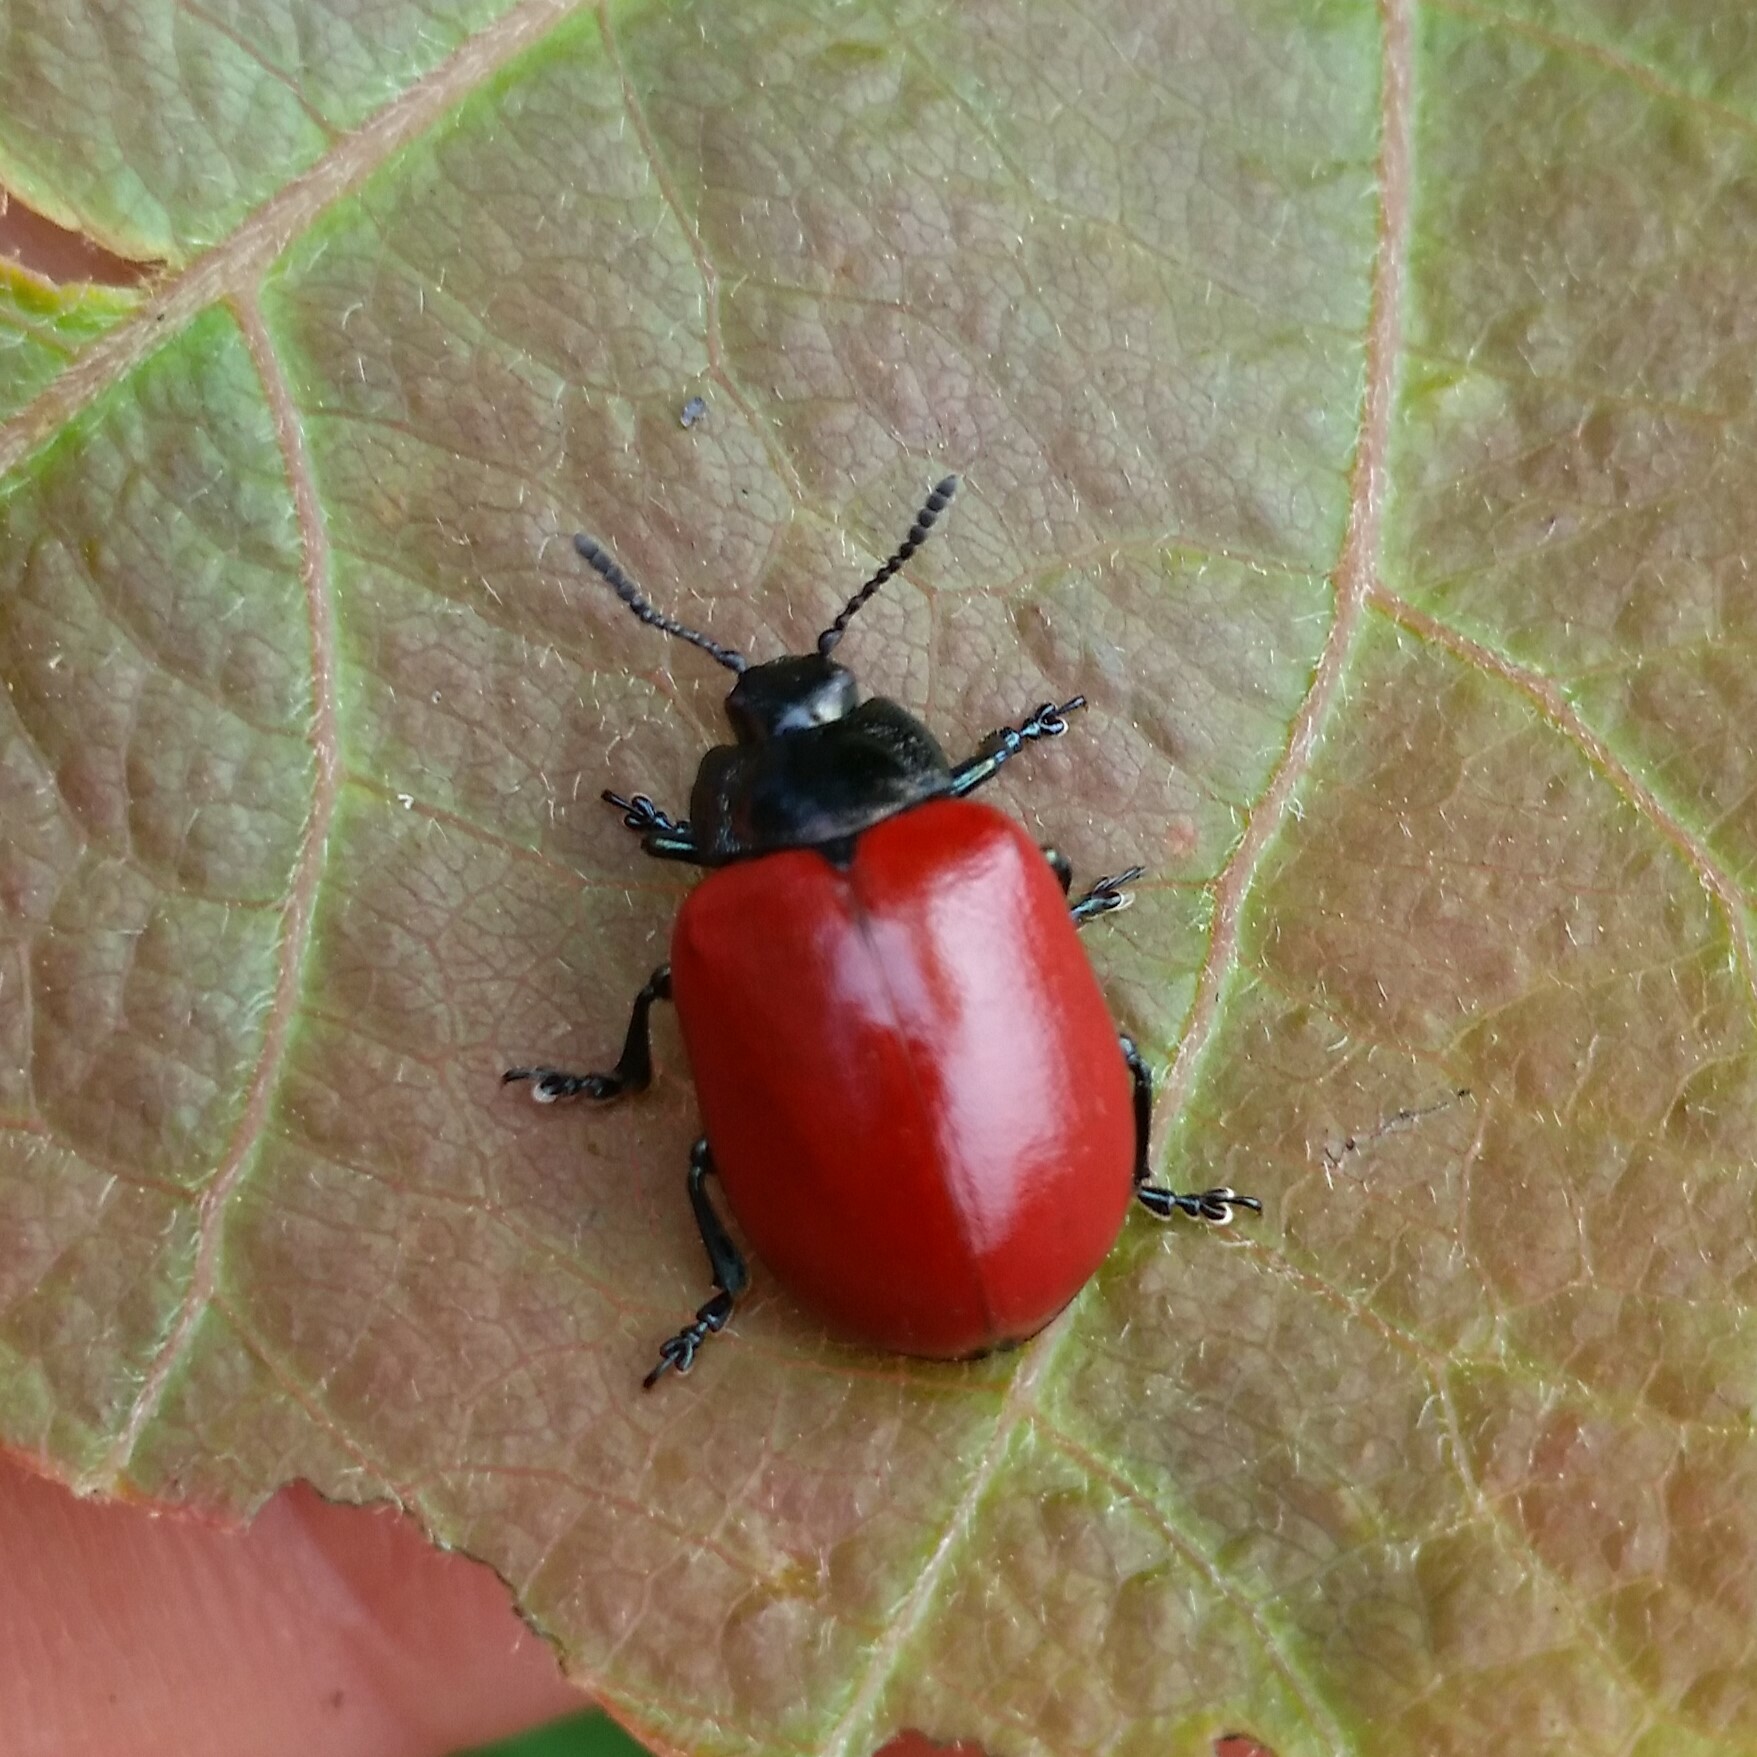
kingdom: Animalia
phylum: Arthropoda
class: Insecta
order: Coleoptera
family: Chrysomelidae
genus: Chrysomela
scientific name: Chrysomela populi
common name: Red poplar leaf beetle
